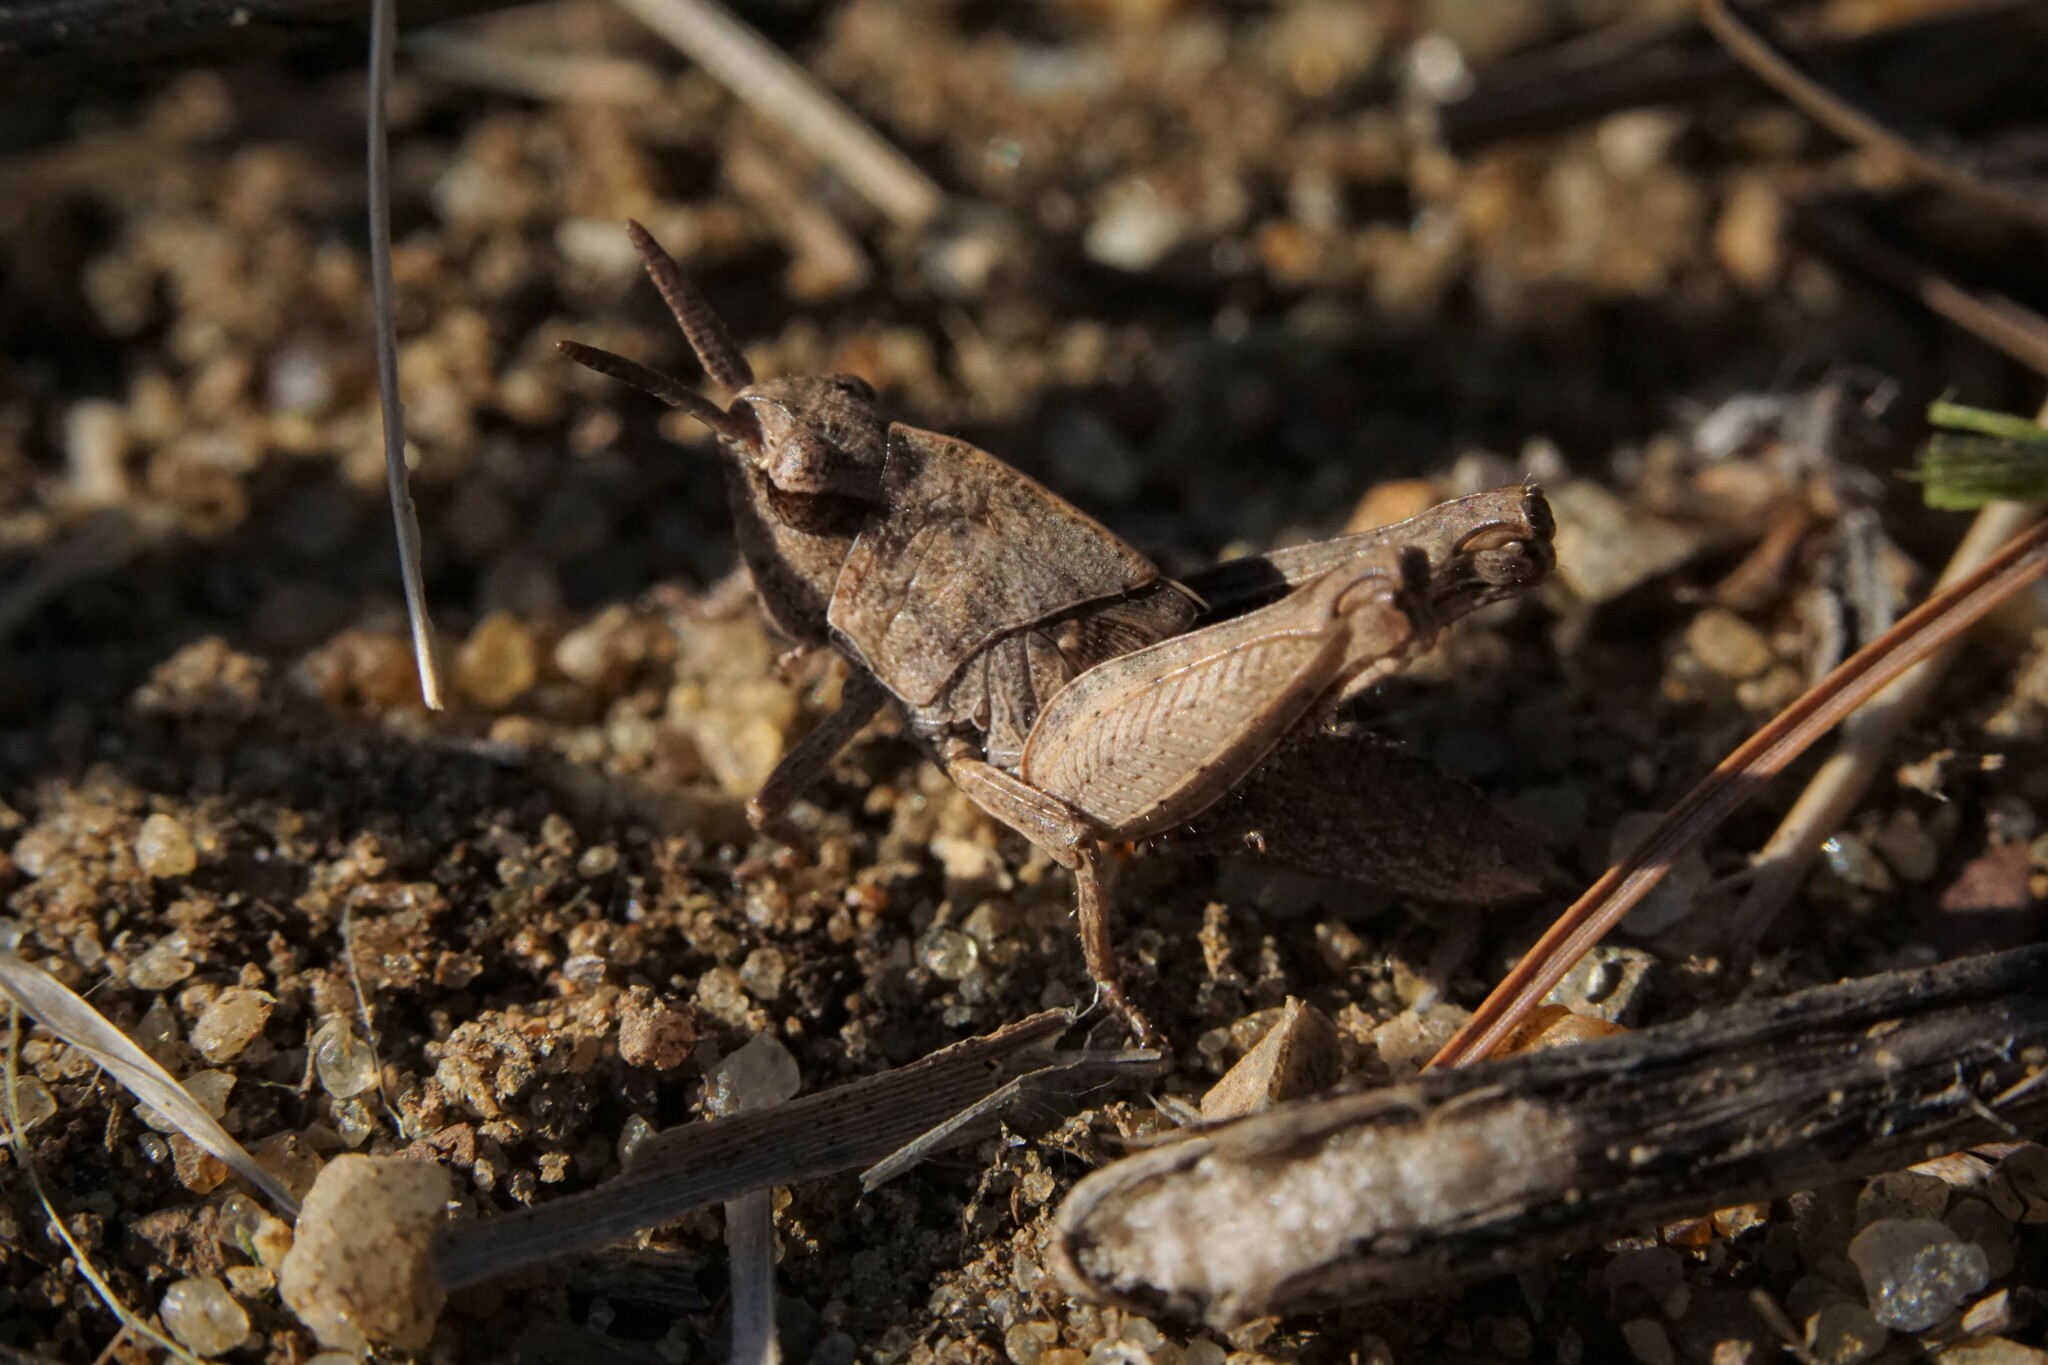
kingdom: Animalia
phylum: Arthropoda
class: Insecta
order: Orthoptera
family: Acrididae
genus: Chortophaga
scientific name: Chortophaga viridifasciata
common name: Green-striped grasshopper
